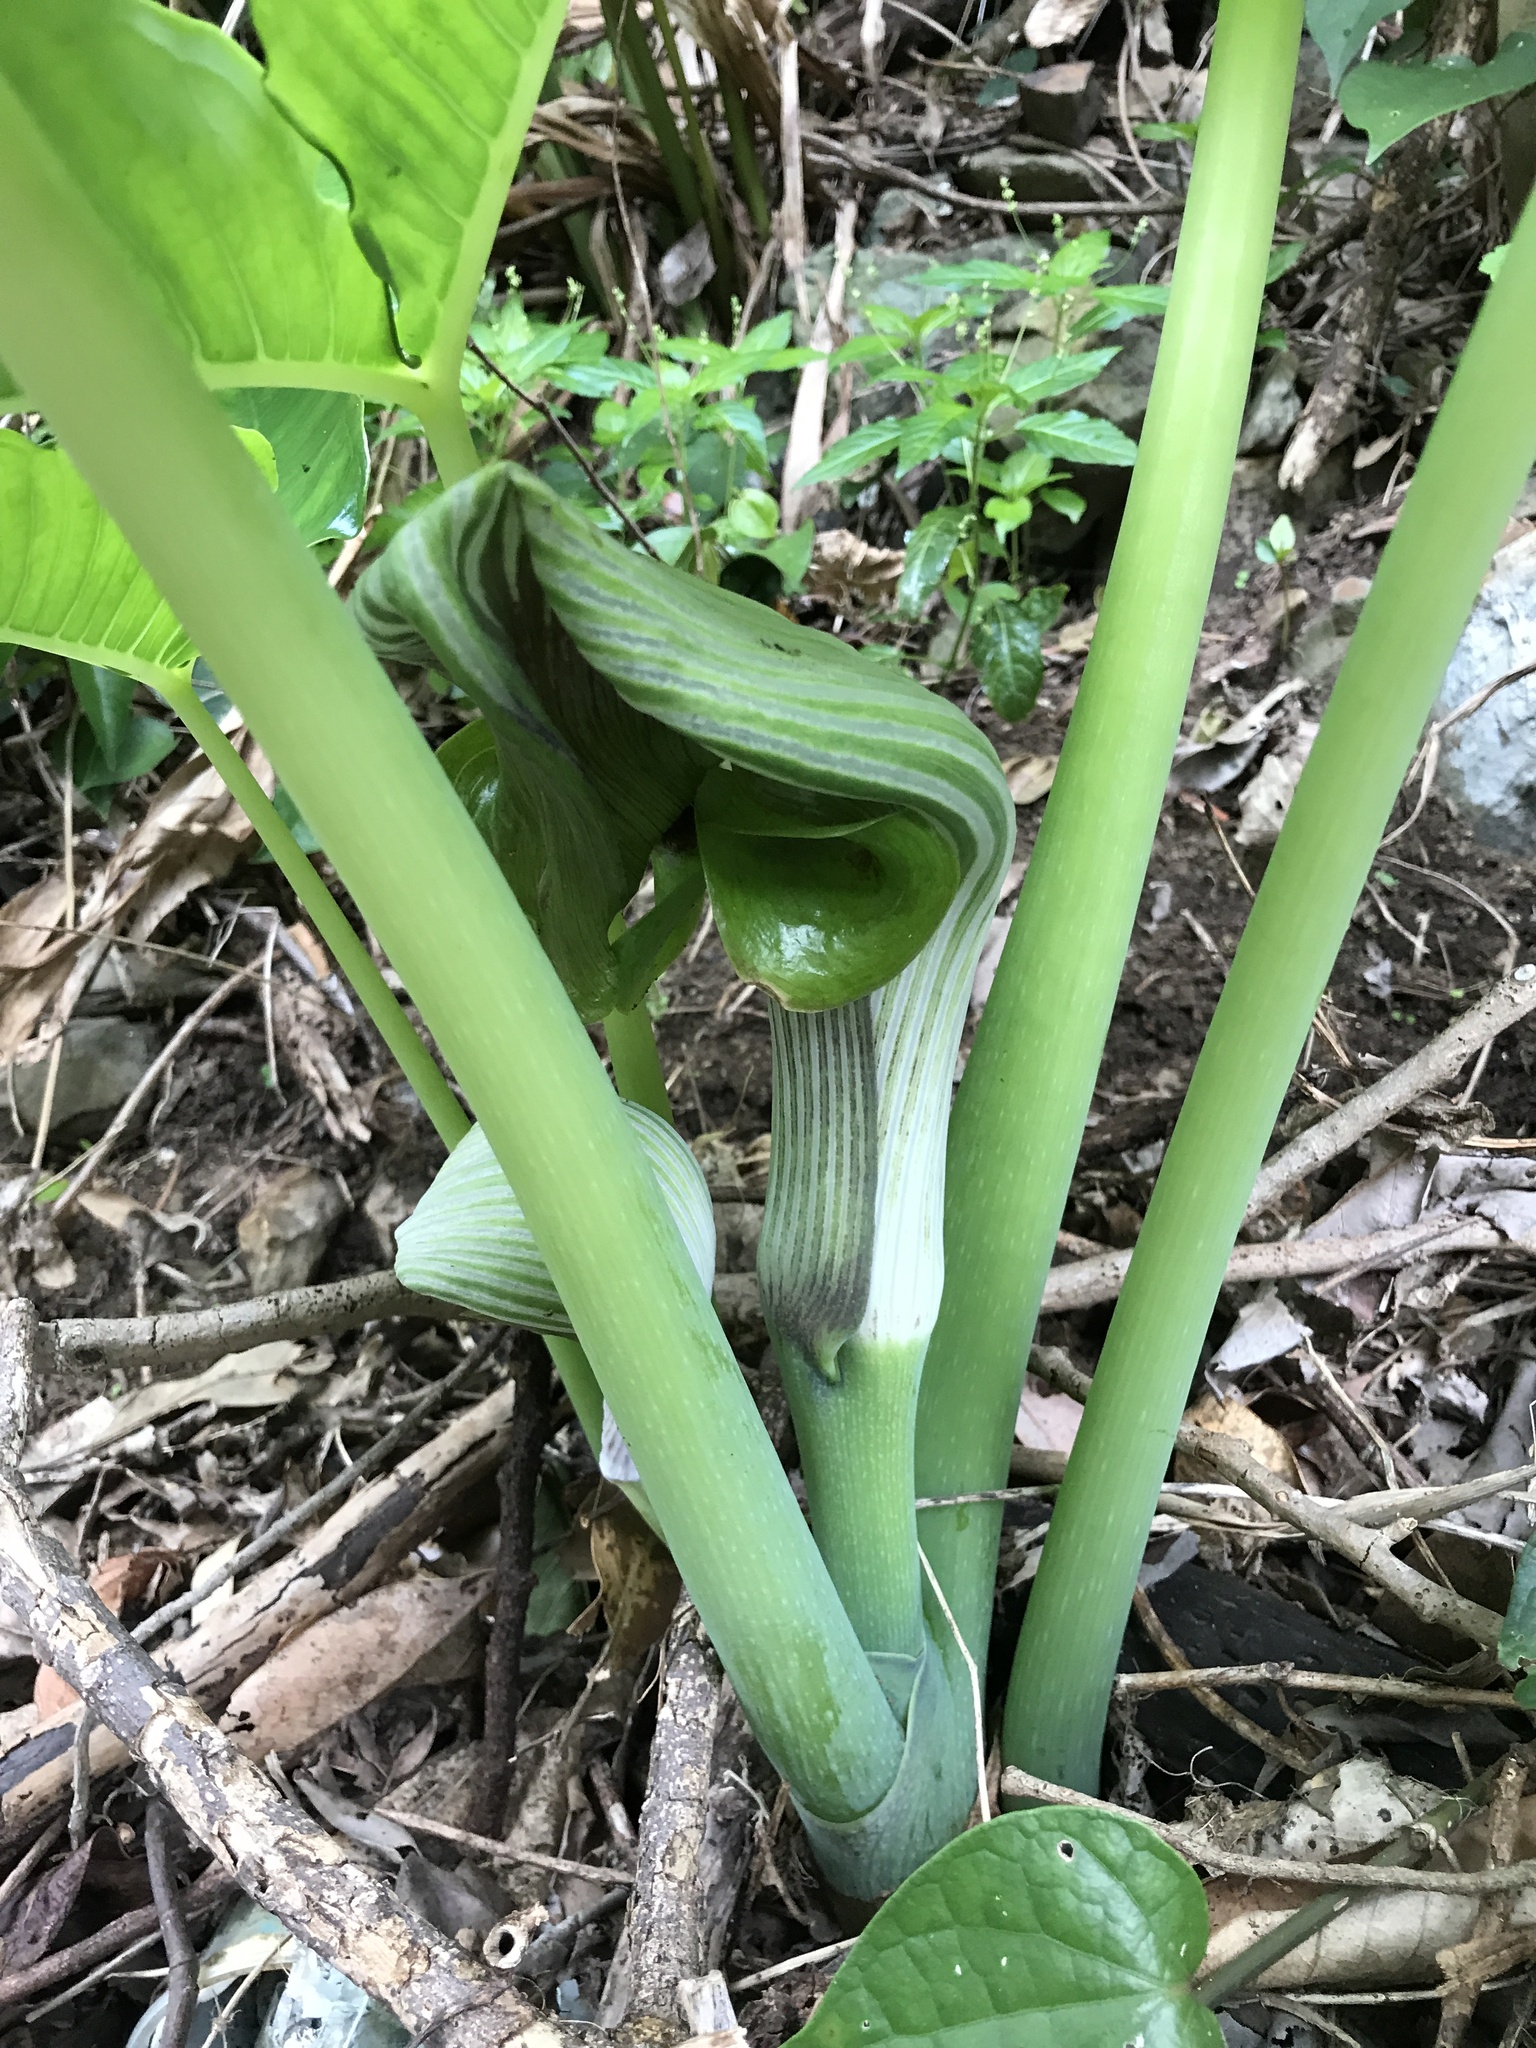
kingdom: Plantae
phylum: Tracheophyta
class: Liliopsida
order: Alismatales
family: Araceae
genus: Arisaema
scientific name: Arisaema ringens
